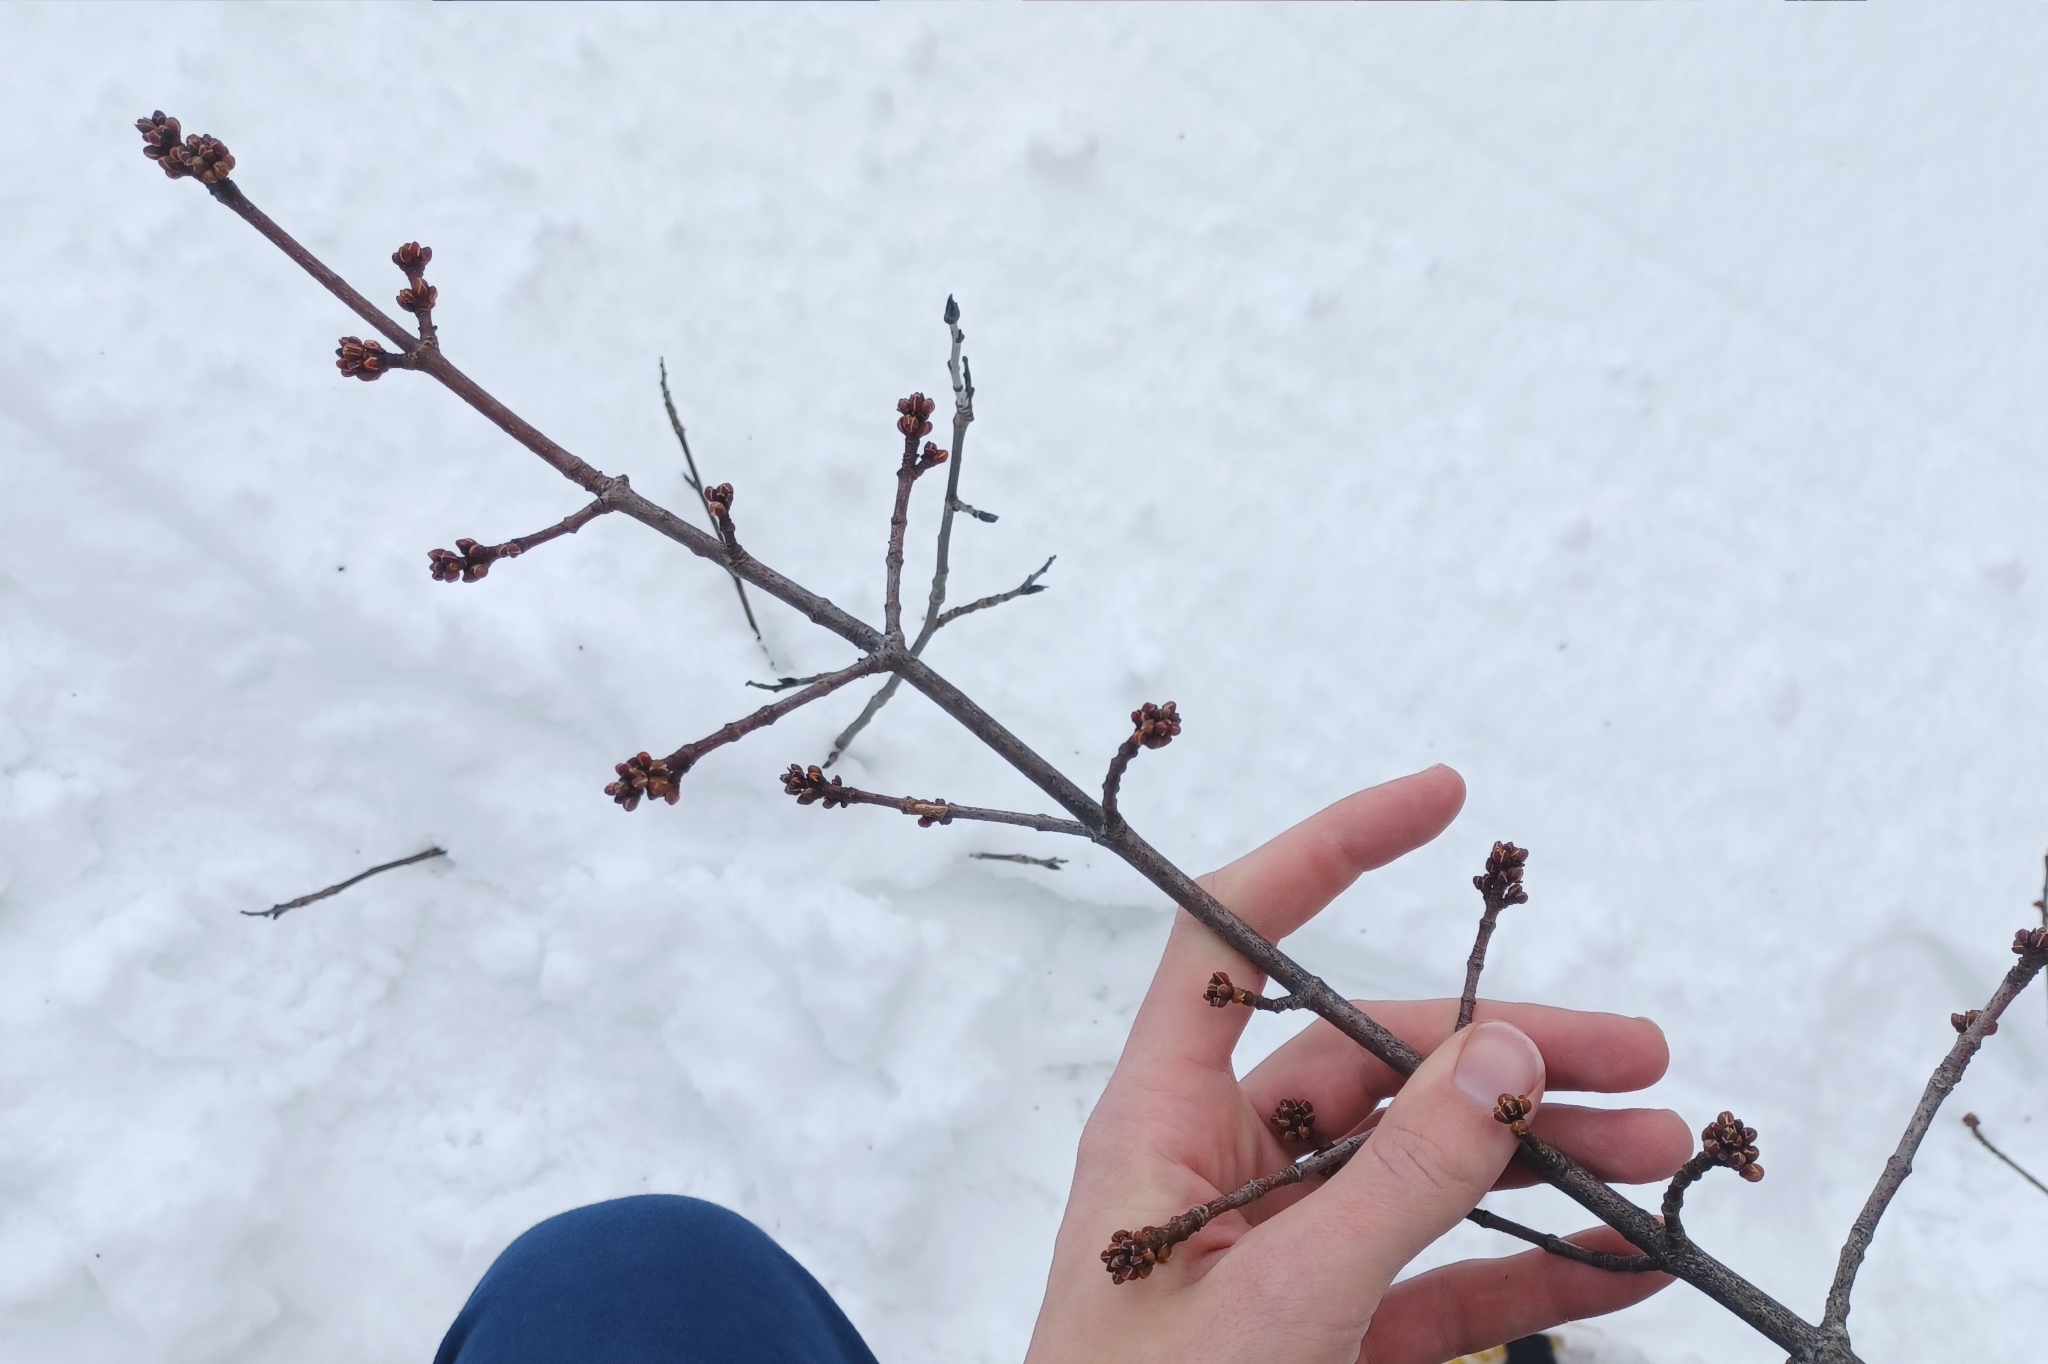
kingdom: Plantae
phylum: Tracheophyta
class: Magnoliopsida
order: Sapindales
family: Sapindaceae
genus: Acer
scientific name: Acer rubrum
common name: Red maple
